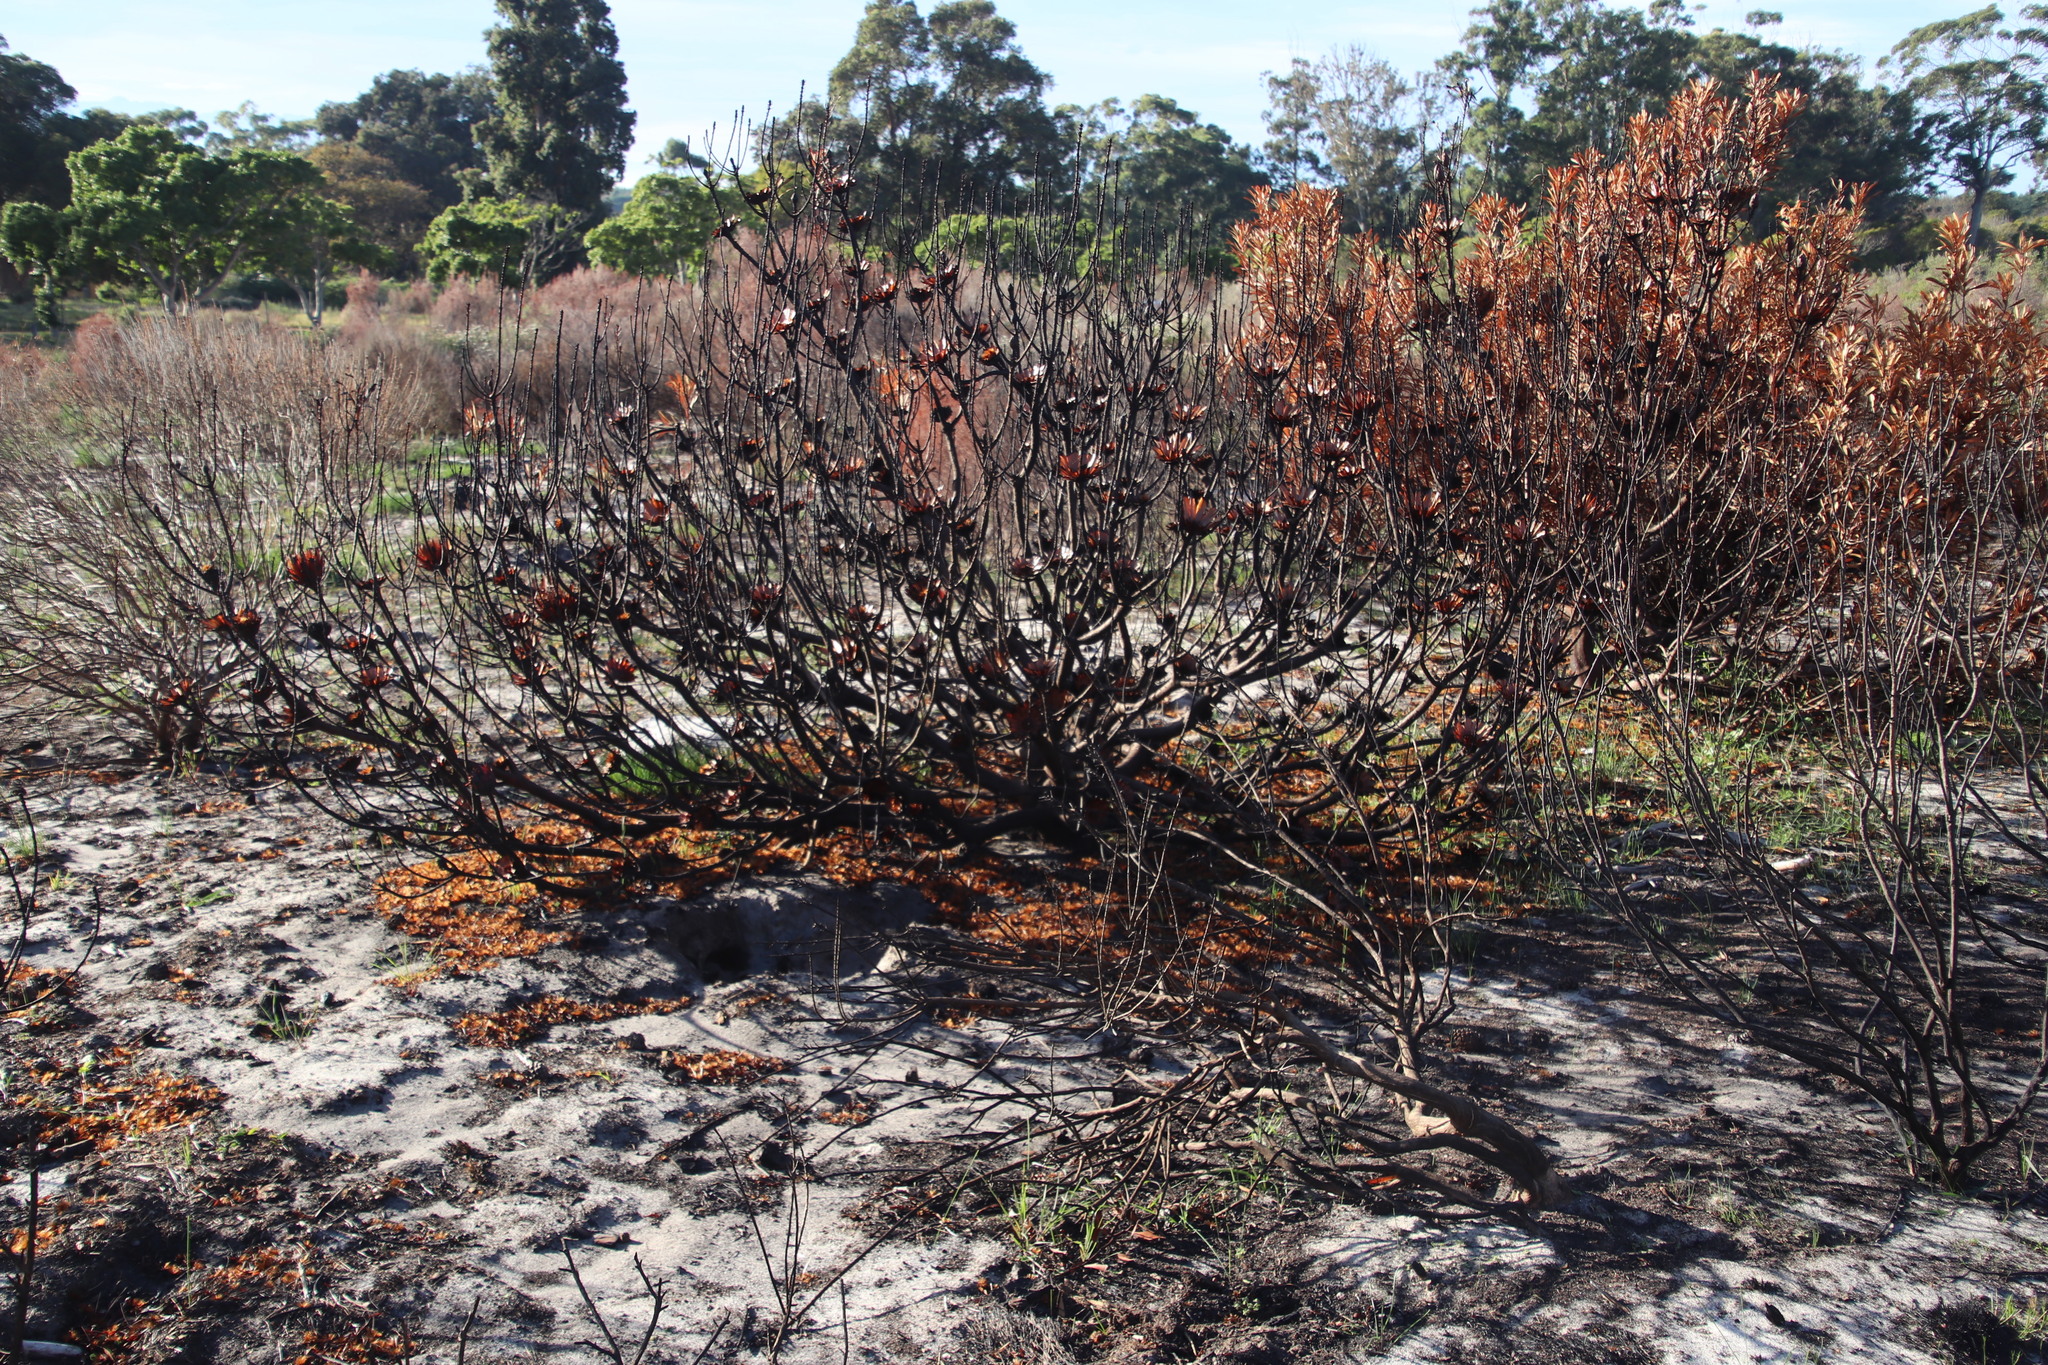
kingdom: Plantae
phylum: Tracheophyta
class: Magnoliopsida
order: Proteales
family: Proteaceae
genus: Protea
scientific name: Protea repens
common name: Sugarbush
